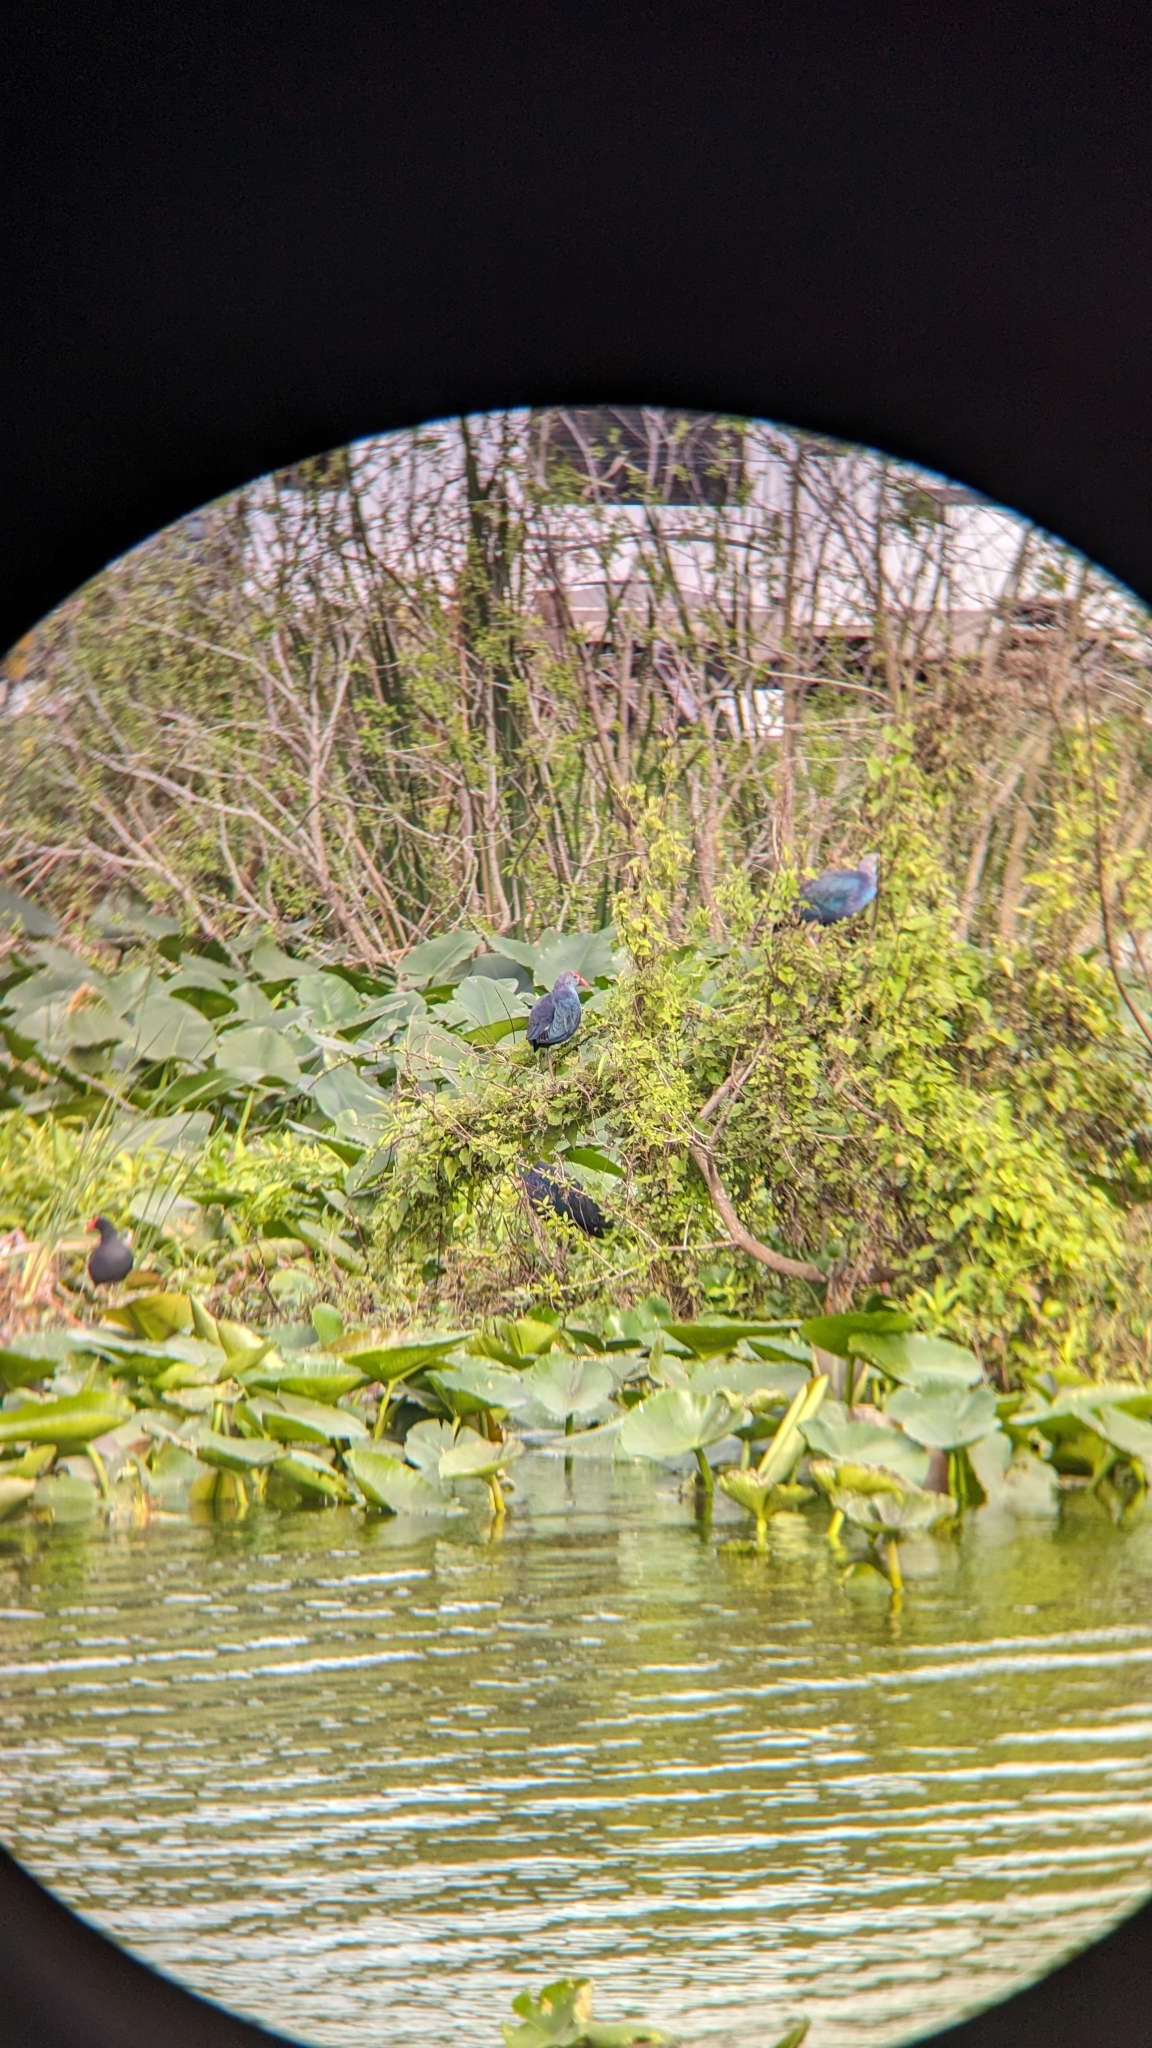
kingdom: Animalia
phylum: Chordata
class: Aves
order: Gruiformes
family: Rallidae
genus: Porphyrio
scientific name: Porphyrio porphyrio
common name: Purple swamphen
